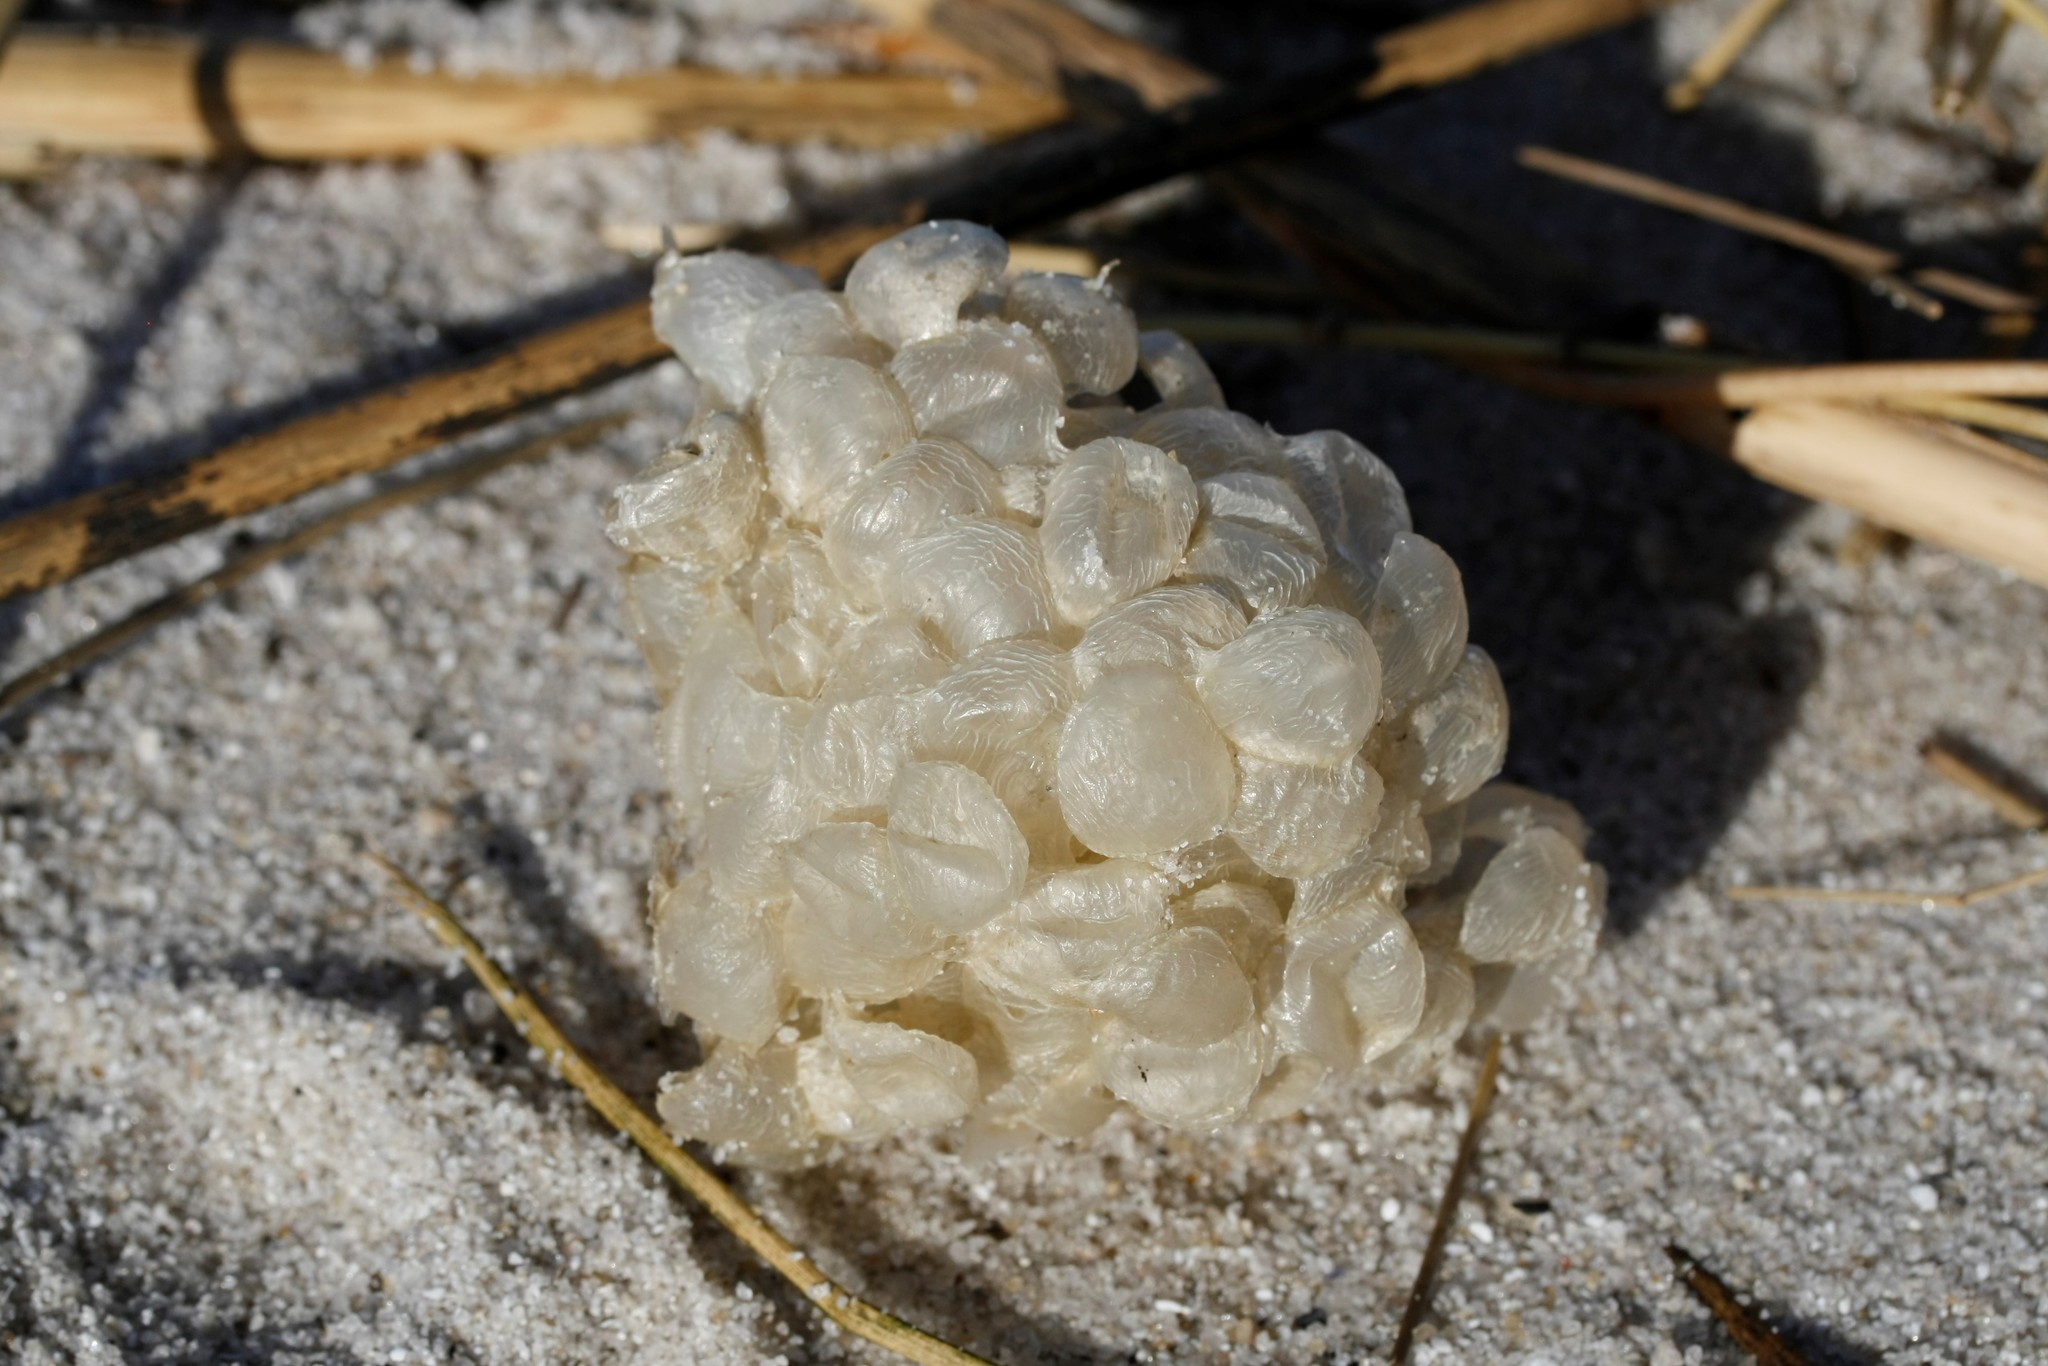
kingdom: Animalia
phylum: Mollusca
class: Gastropoda
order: Neogastropoda
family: Buccinidae
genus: Buccinum
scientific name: Buccinum undatum
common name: Common whelk
